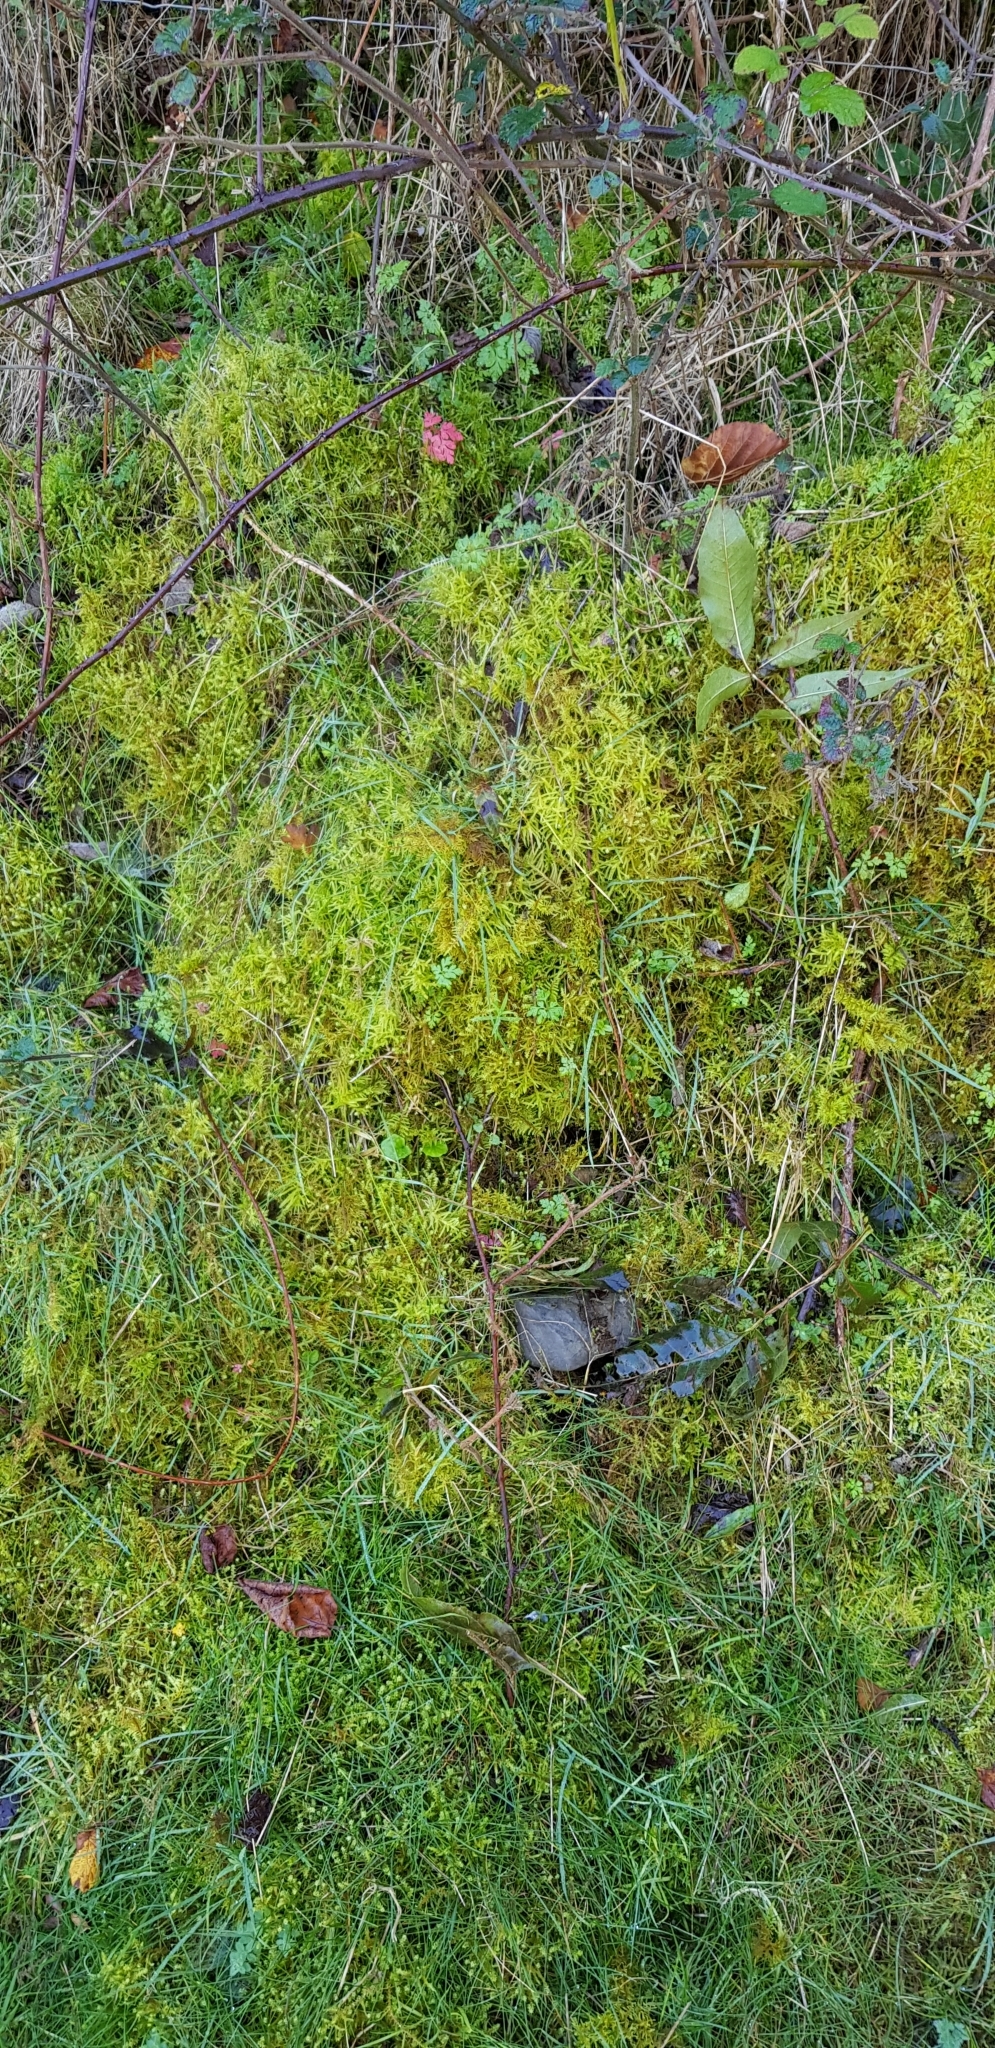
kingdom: Plantae
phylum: Bryophyta
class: Bryopsida
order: Hypnales
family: Brachytheciaceae
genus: Pseudoscleropodium
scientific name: Pseudoscleropodium purum
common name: Neat feather-moss
